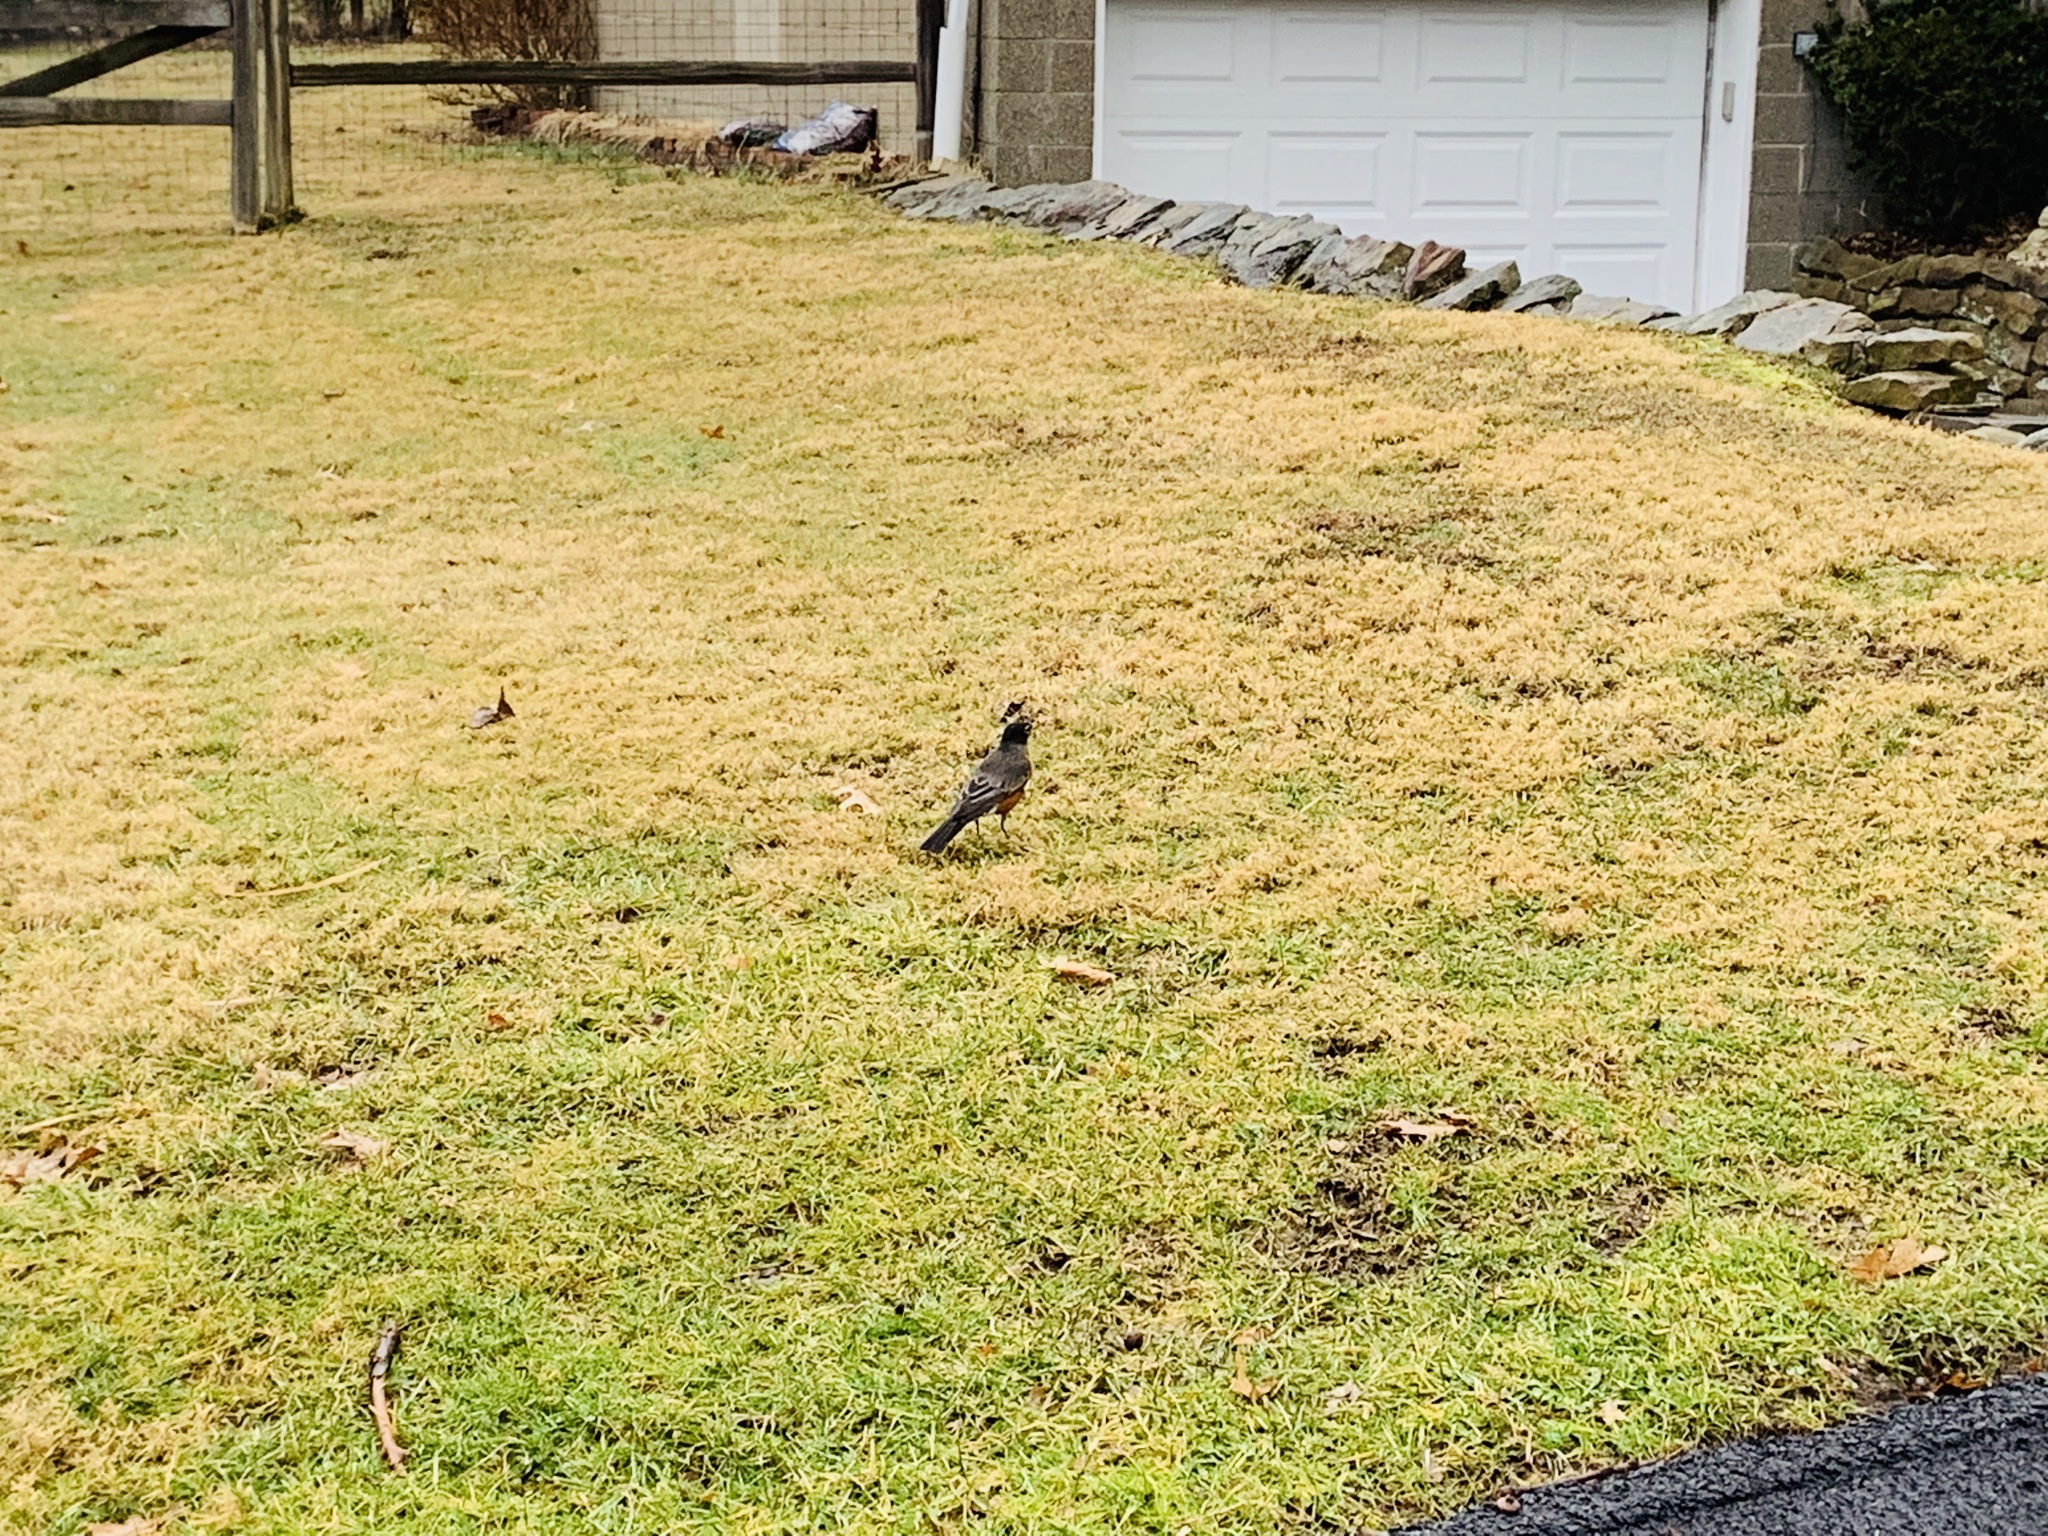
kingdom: Animalia
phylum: Chordata
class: Aves
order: Passeriformes
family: Turdidae
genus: Turdus
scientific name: Turdus migratorius
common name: American robin
